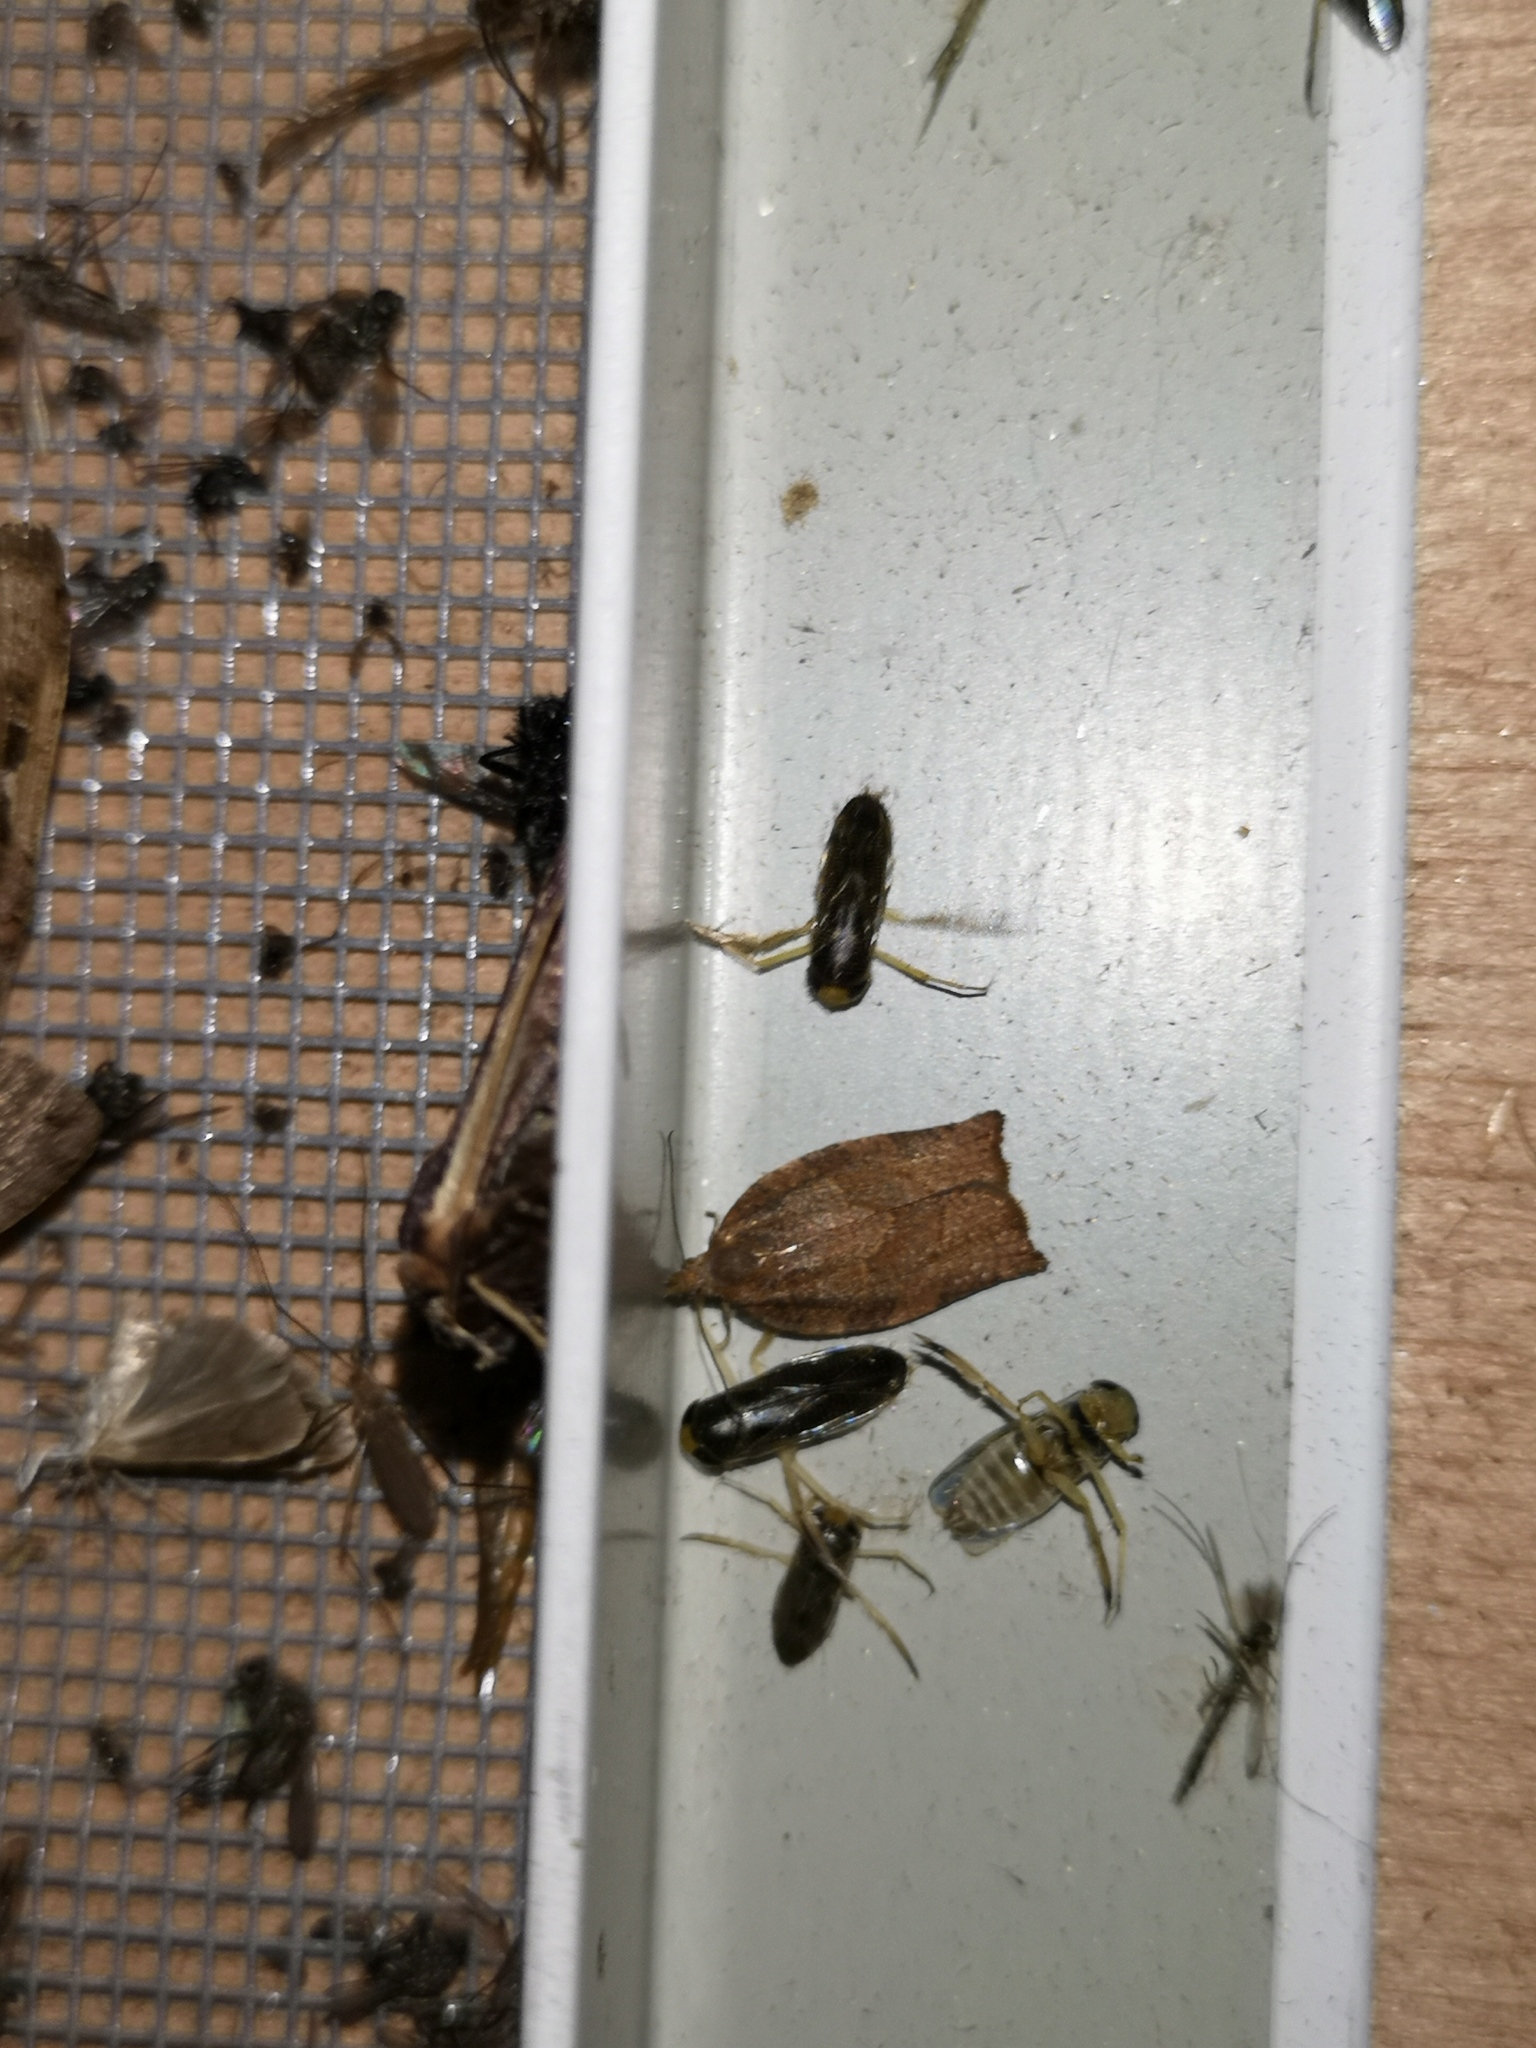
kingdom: Animalia
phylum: Arthropoda
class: Insecta
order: Lepidoptera
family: Tortricidae
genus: Pandemis
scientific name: Pandemis heparana
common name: Dark fruit-tree tortrix
